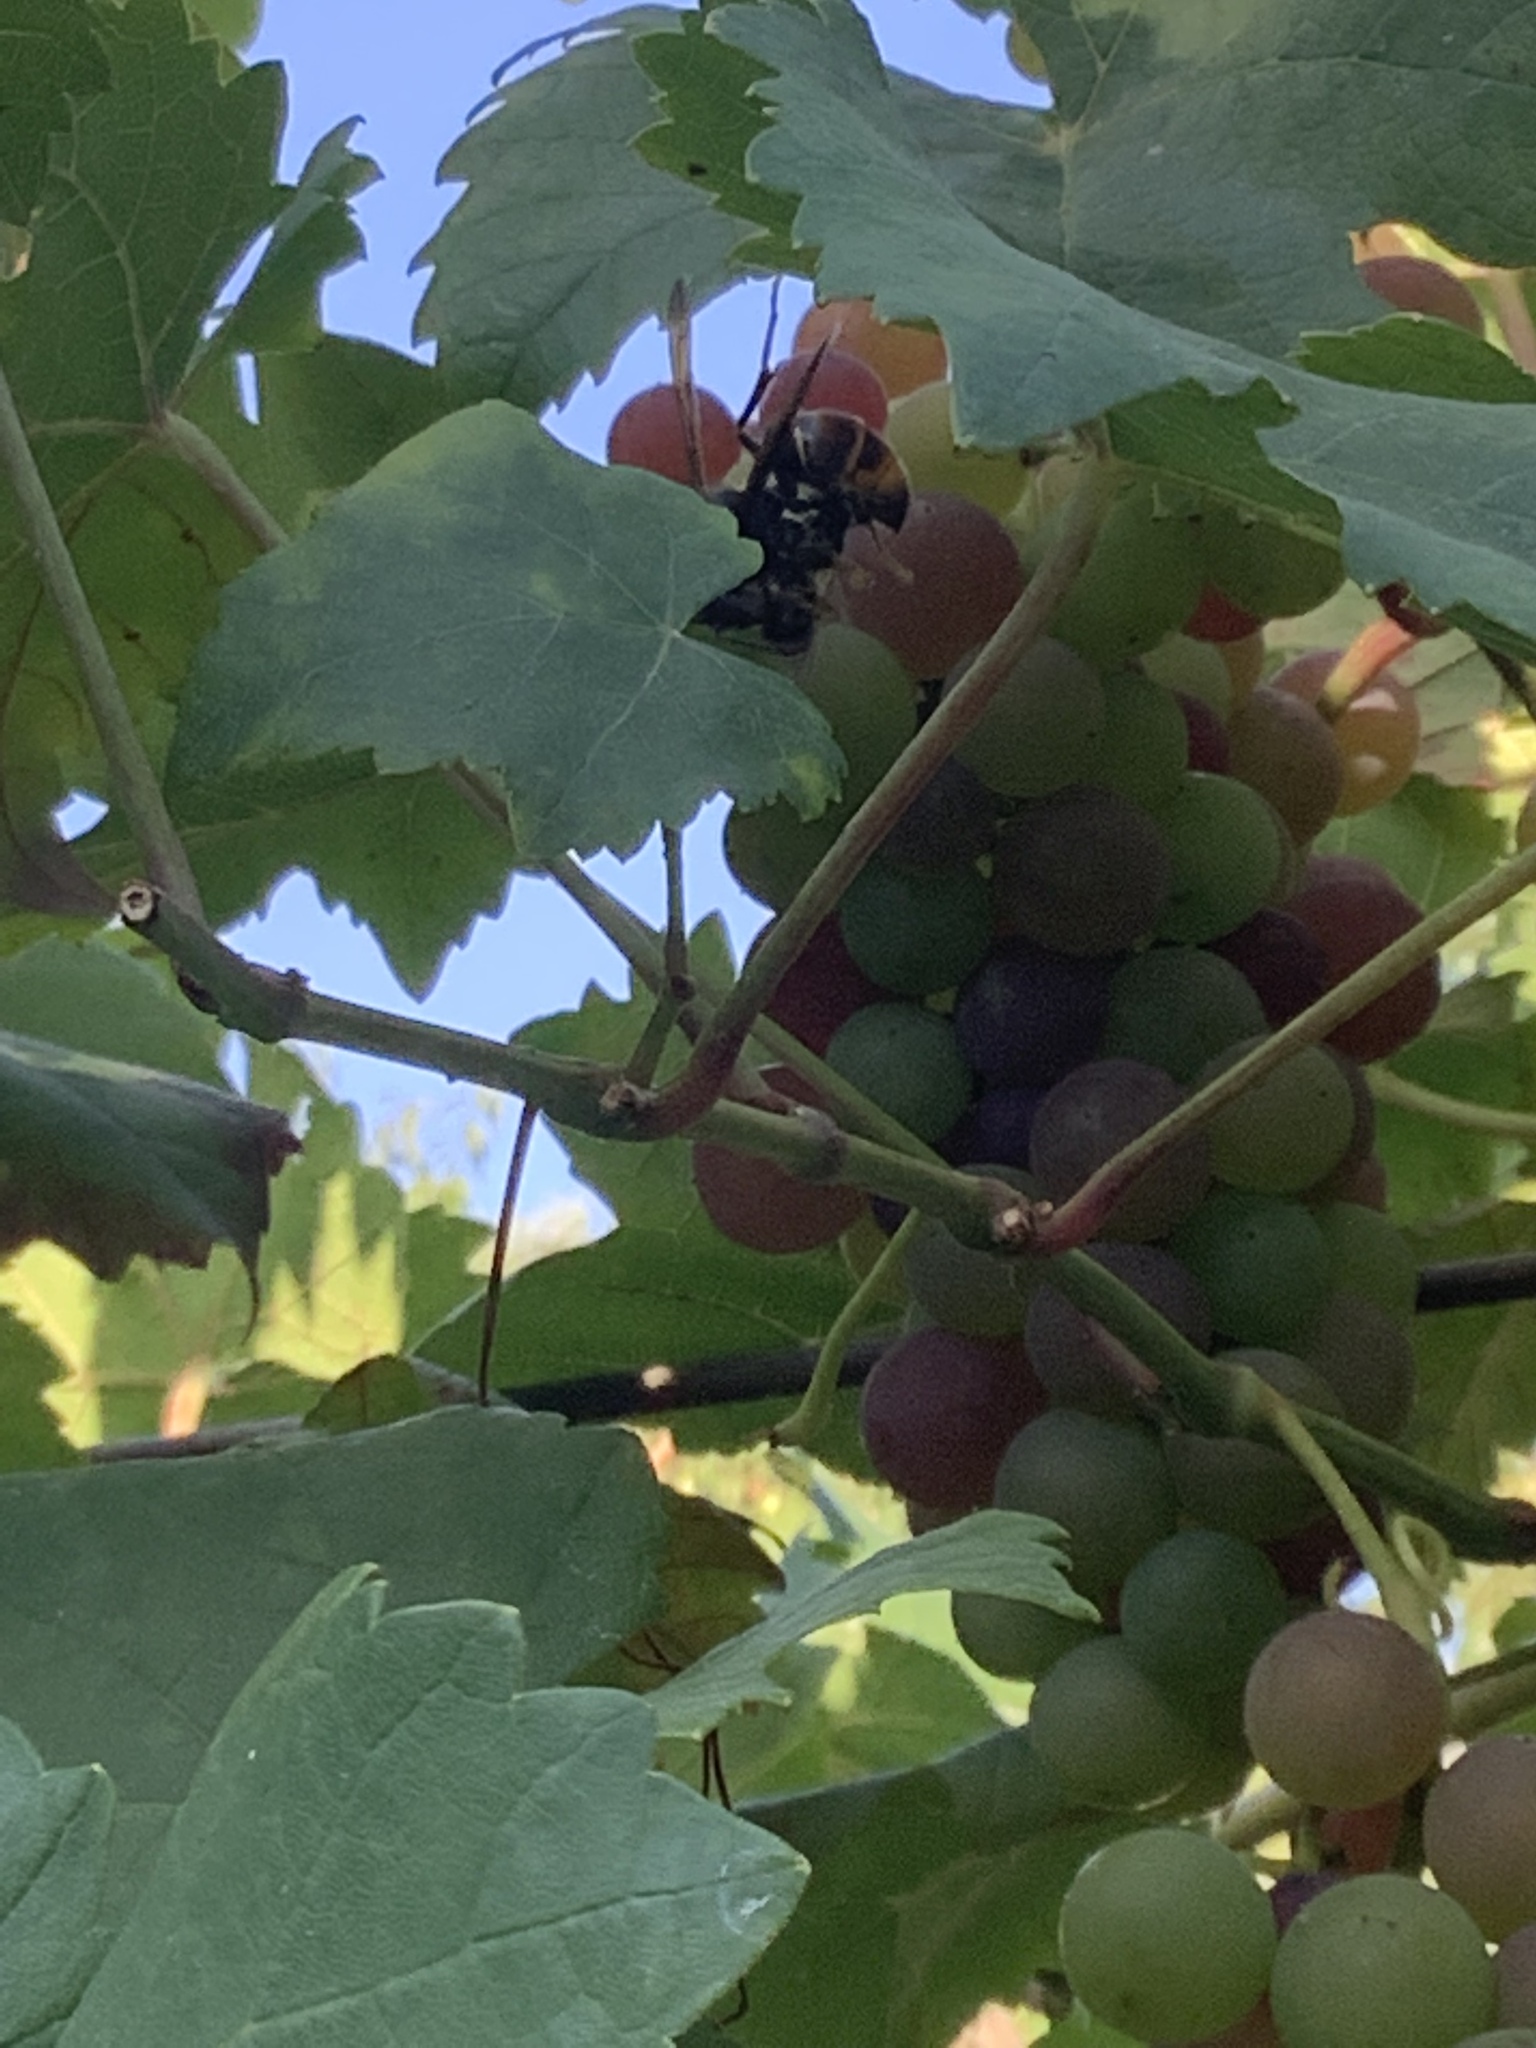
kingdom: Animalia
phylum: Arthropoda
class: Insecta
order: Hymenoptera
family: Vespidae
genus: Vespa
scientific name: Vespa velutina
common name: Asian hornet
